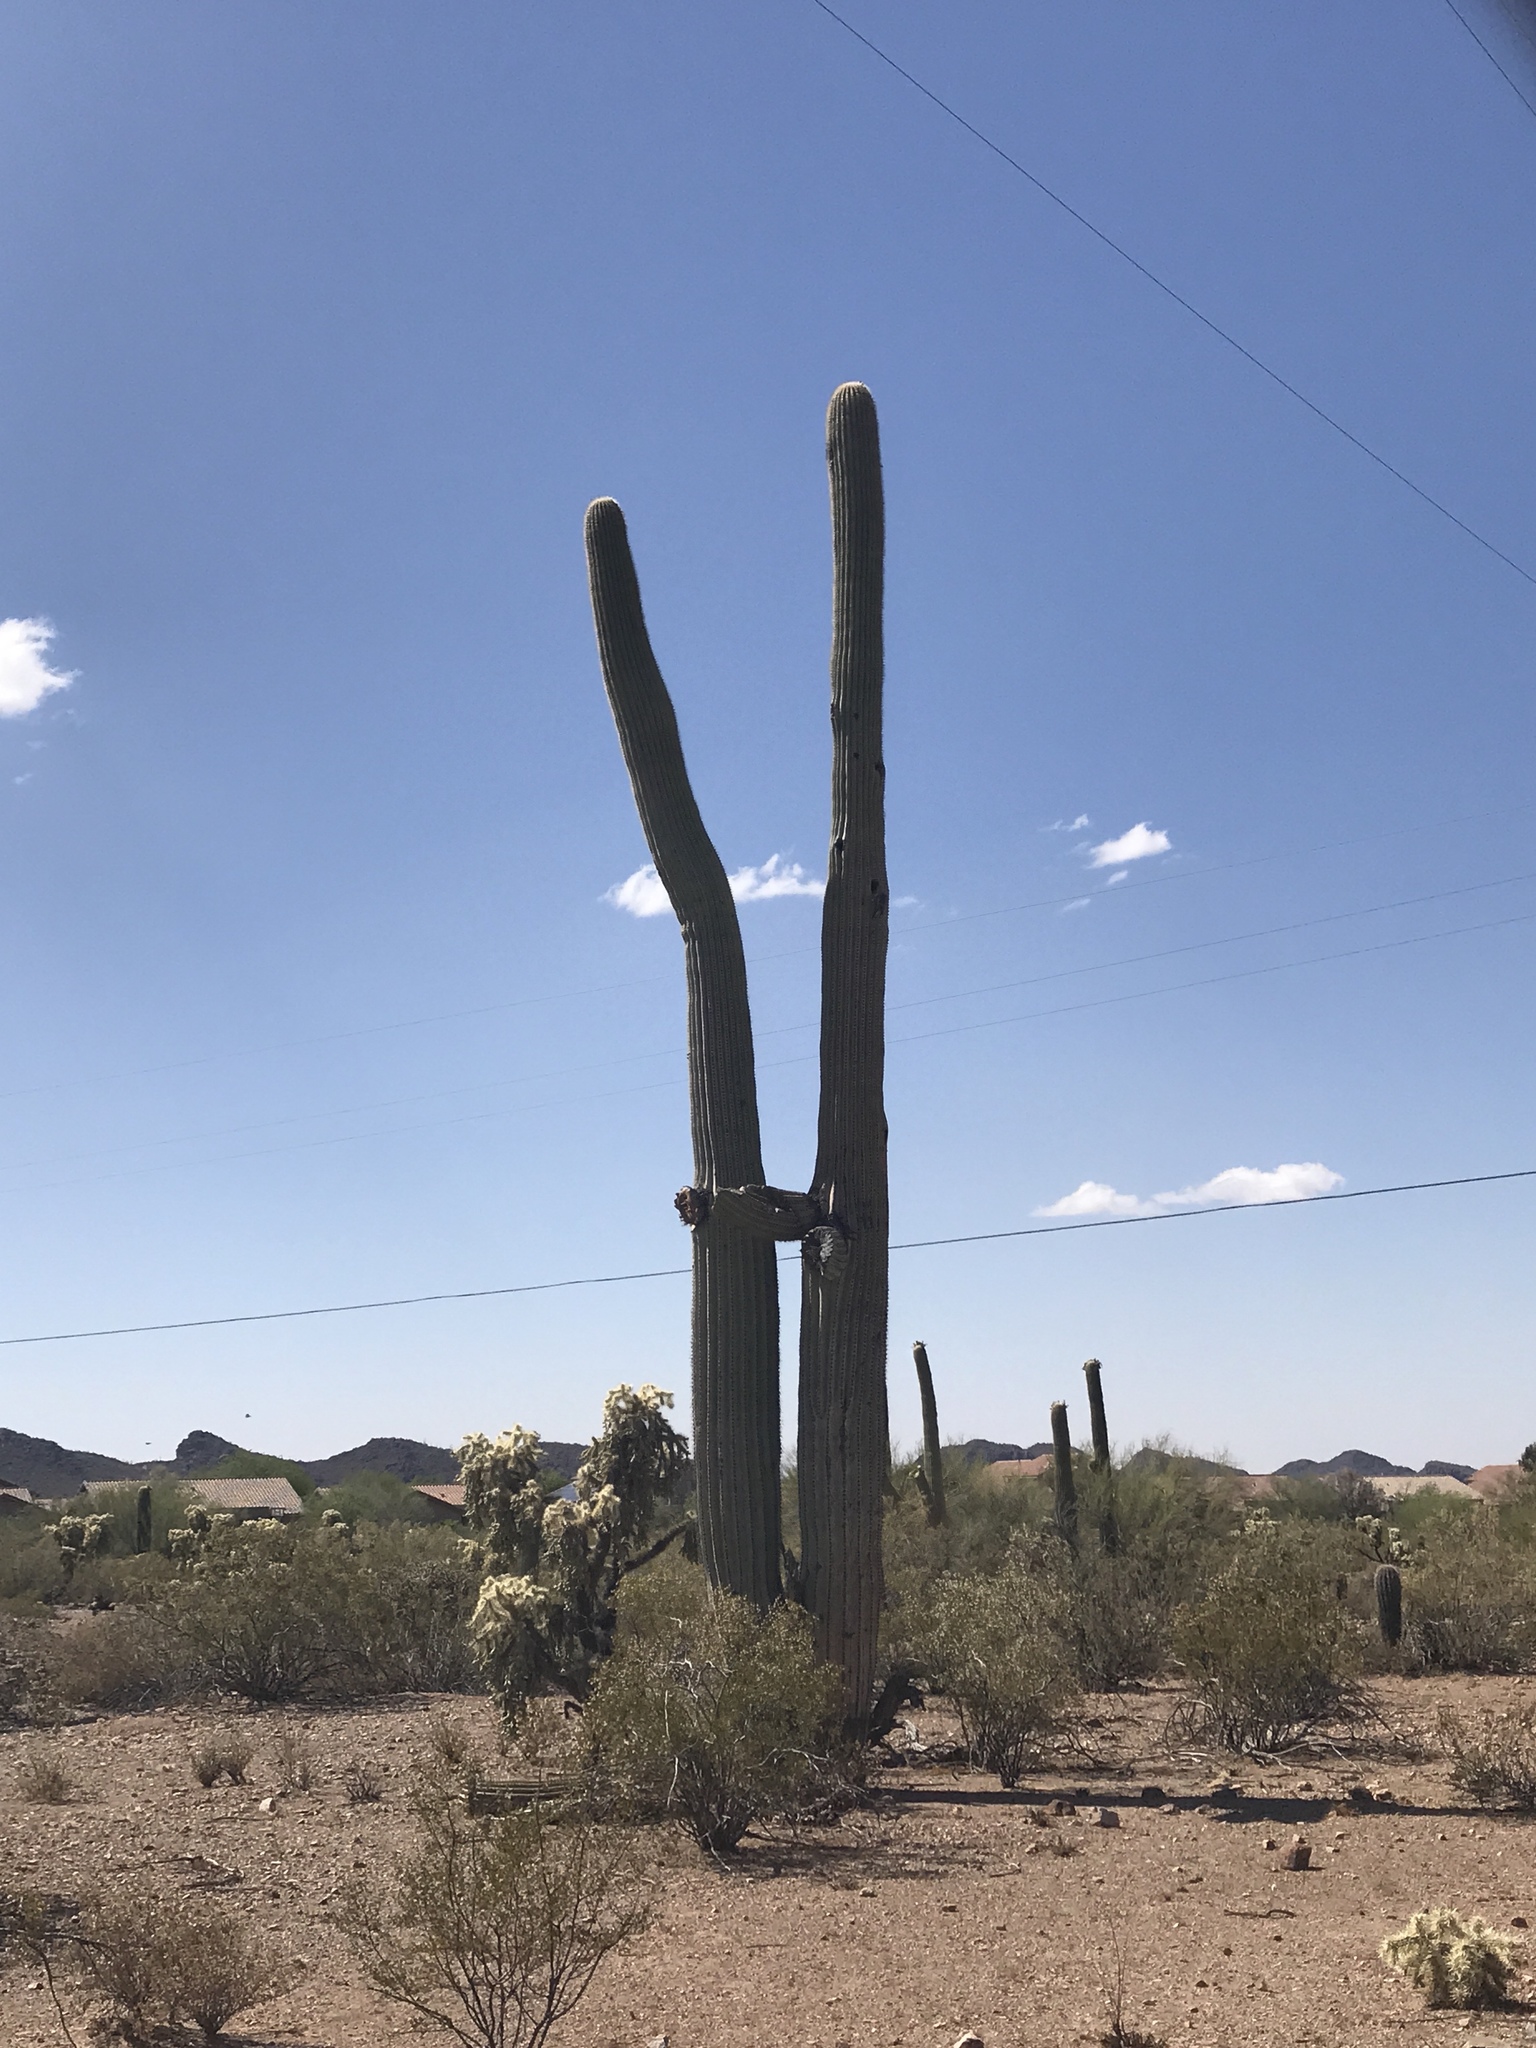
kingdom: Plantae
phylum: Tracheophyta
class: Magnoliopsida
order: Caryophyllales
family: Cactaceae
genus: Carnegiea
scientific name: Carnegiea gigantea
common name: Saguaro
